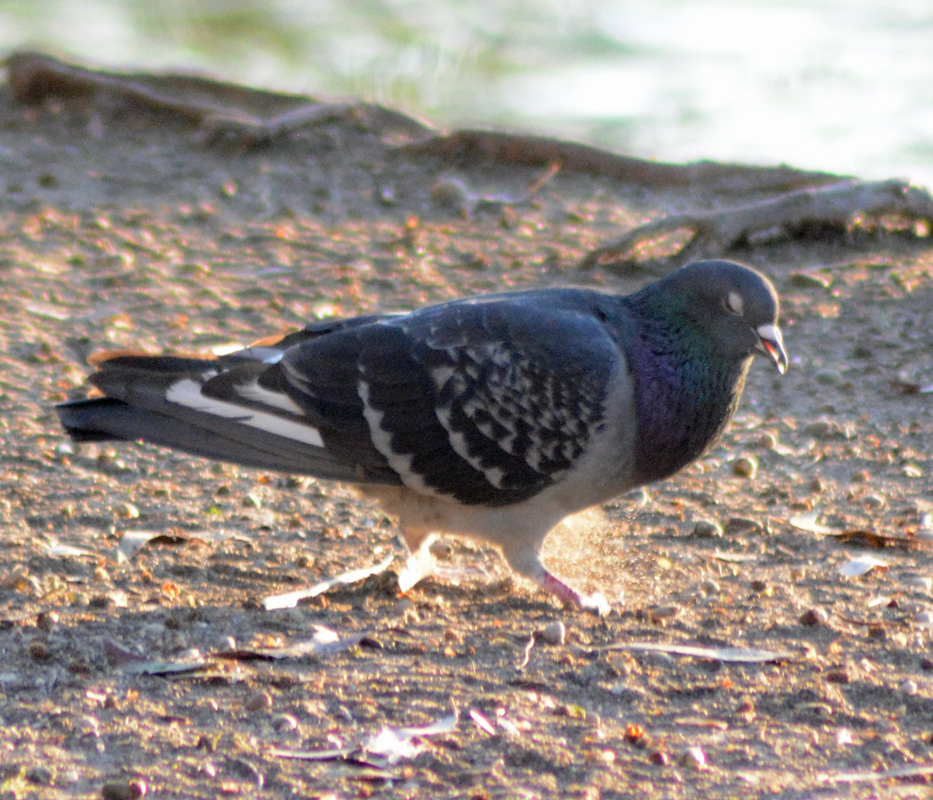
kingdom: Animalia
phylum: Chordata
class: Aves
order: Columbiformes
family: Columbidae
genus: Columba
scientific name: Columba livia
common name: Rock pigeon
